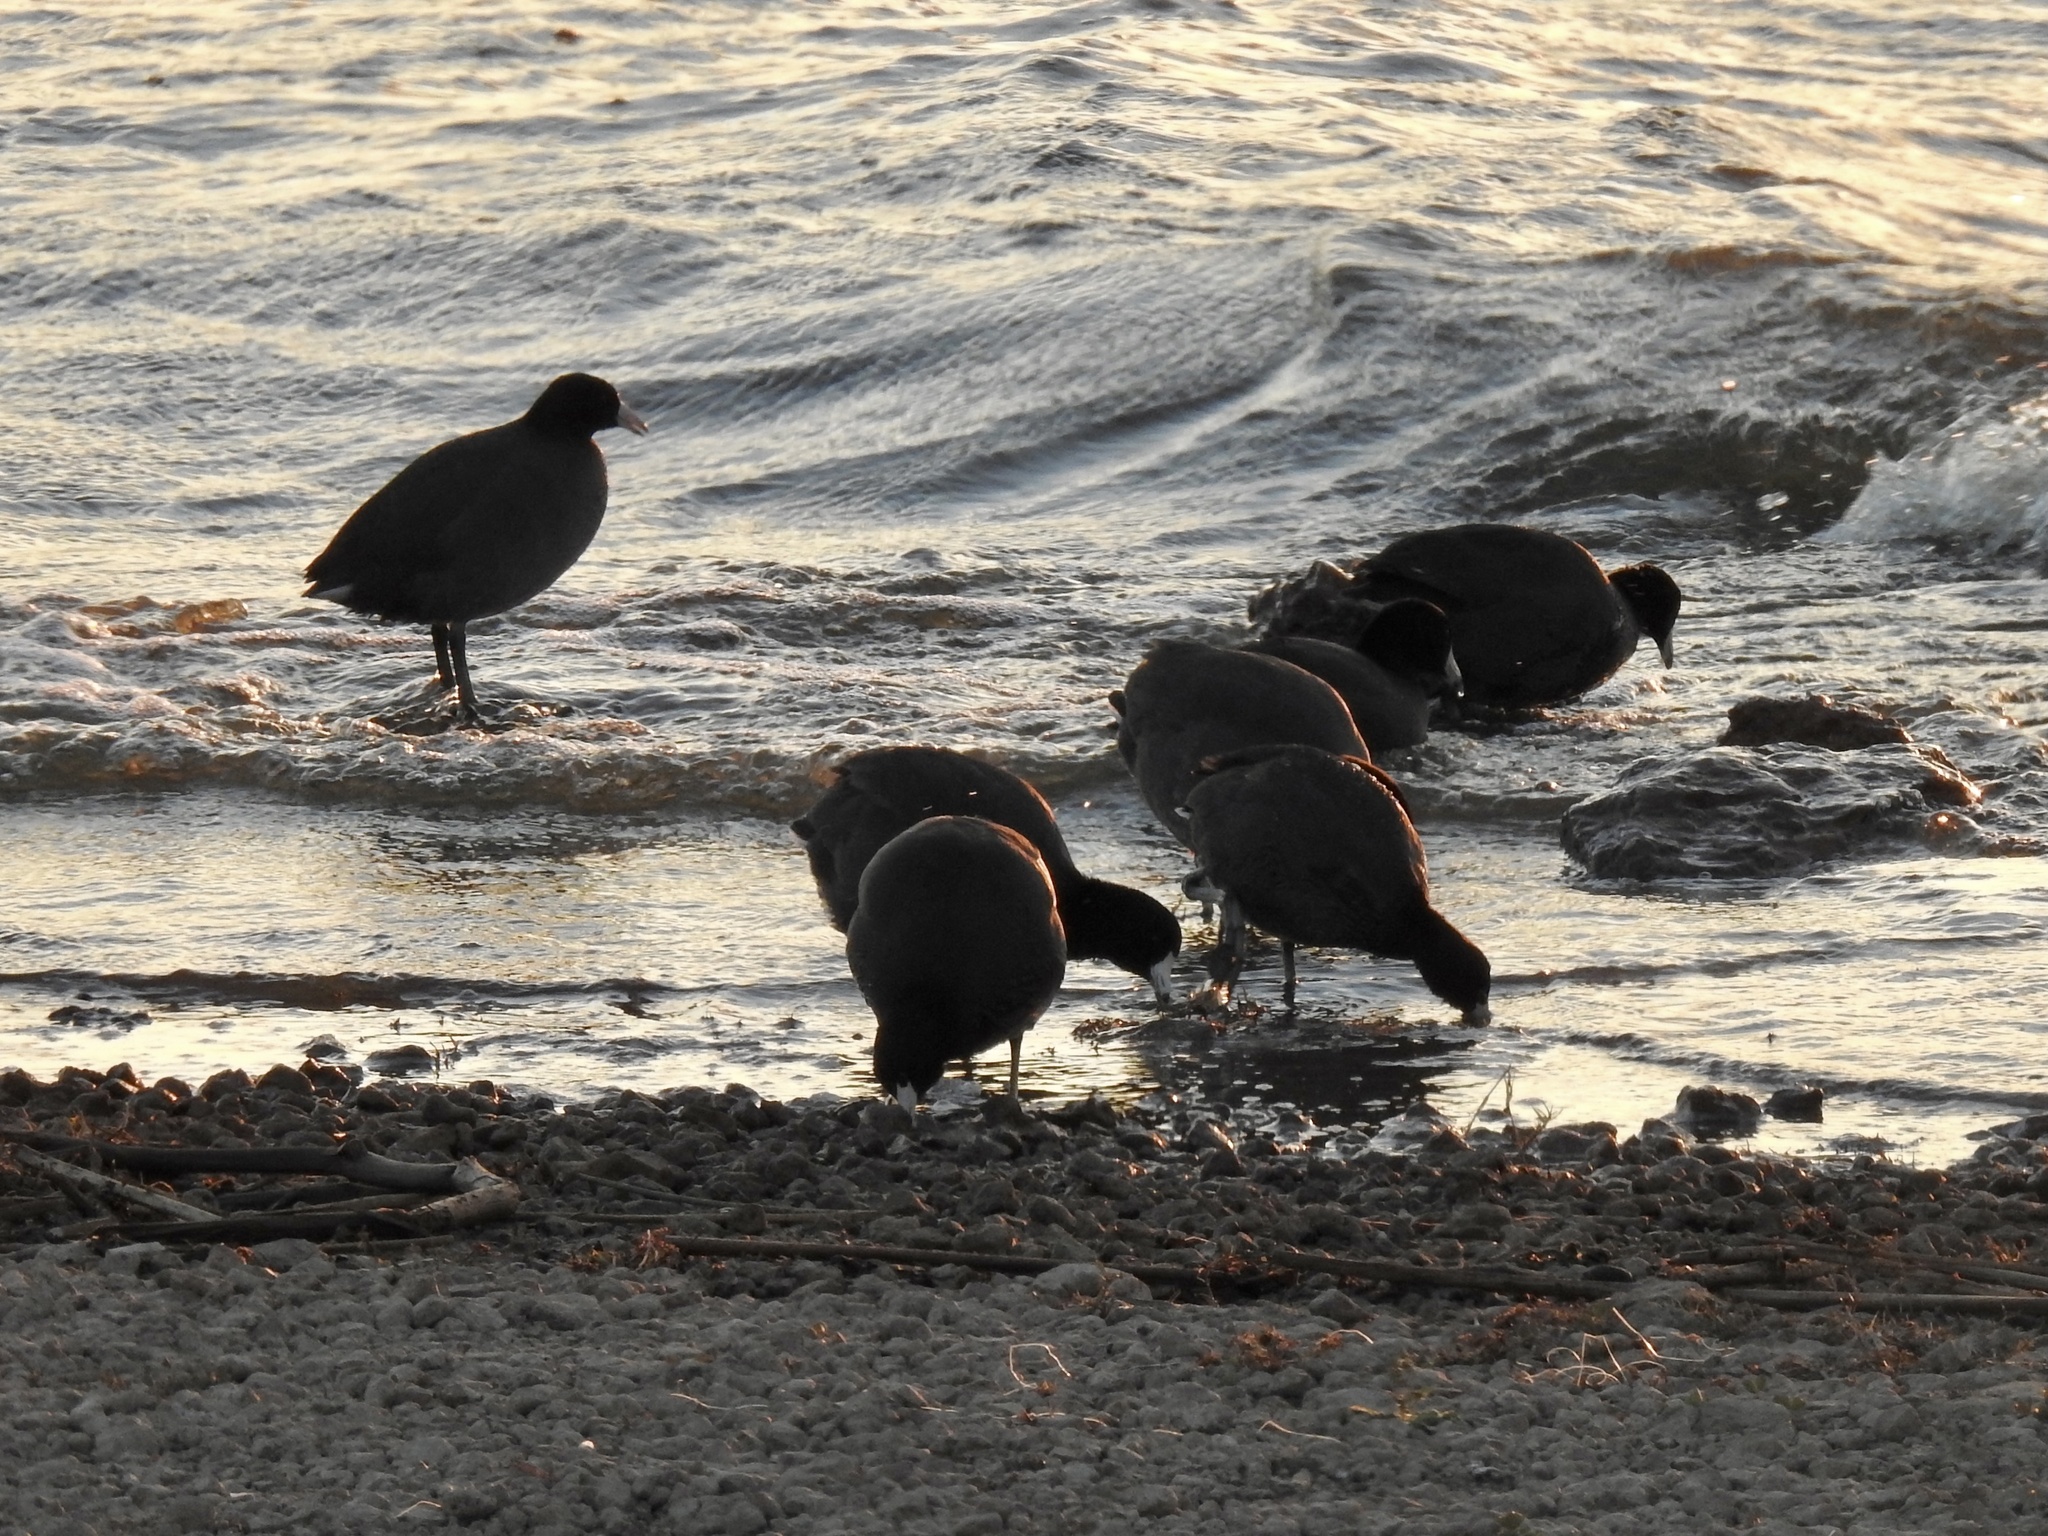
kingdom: Animalia
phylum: Chordata
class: Aves
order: Gruiformes
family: Rallidae
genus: Fulica
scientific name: Fulica americana
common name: American coot
